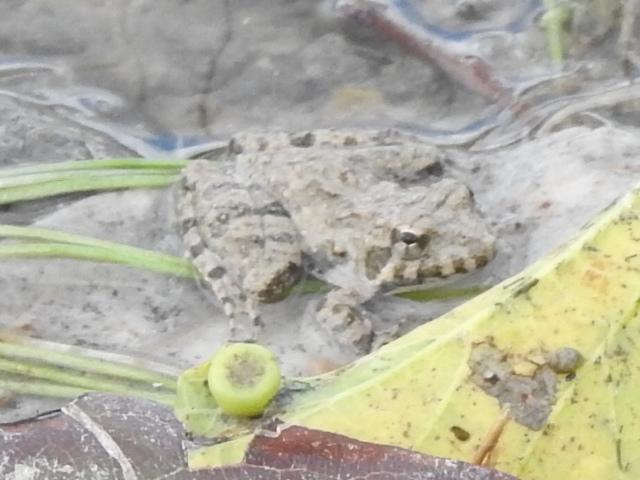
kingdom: Animalia
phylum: Chordata
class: Amphibia
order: Anura
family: Hylidae
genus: Acris
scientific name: Acris blanchardi
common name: Blanchard's cricket frog
